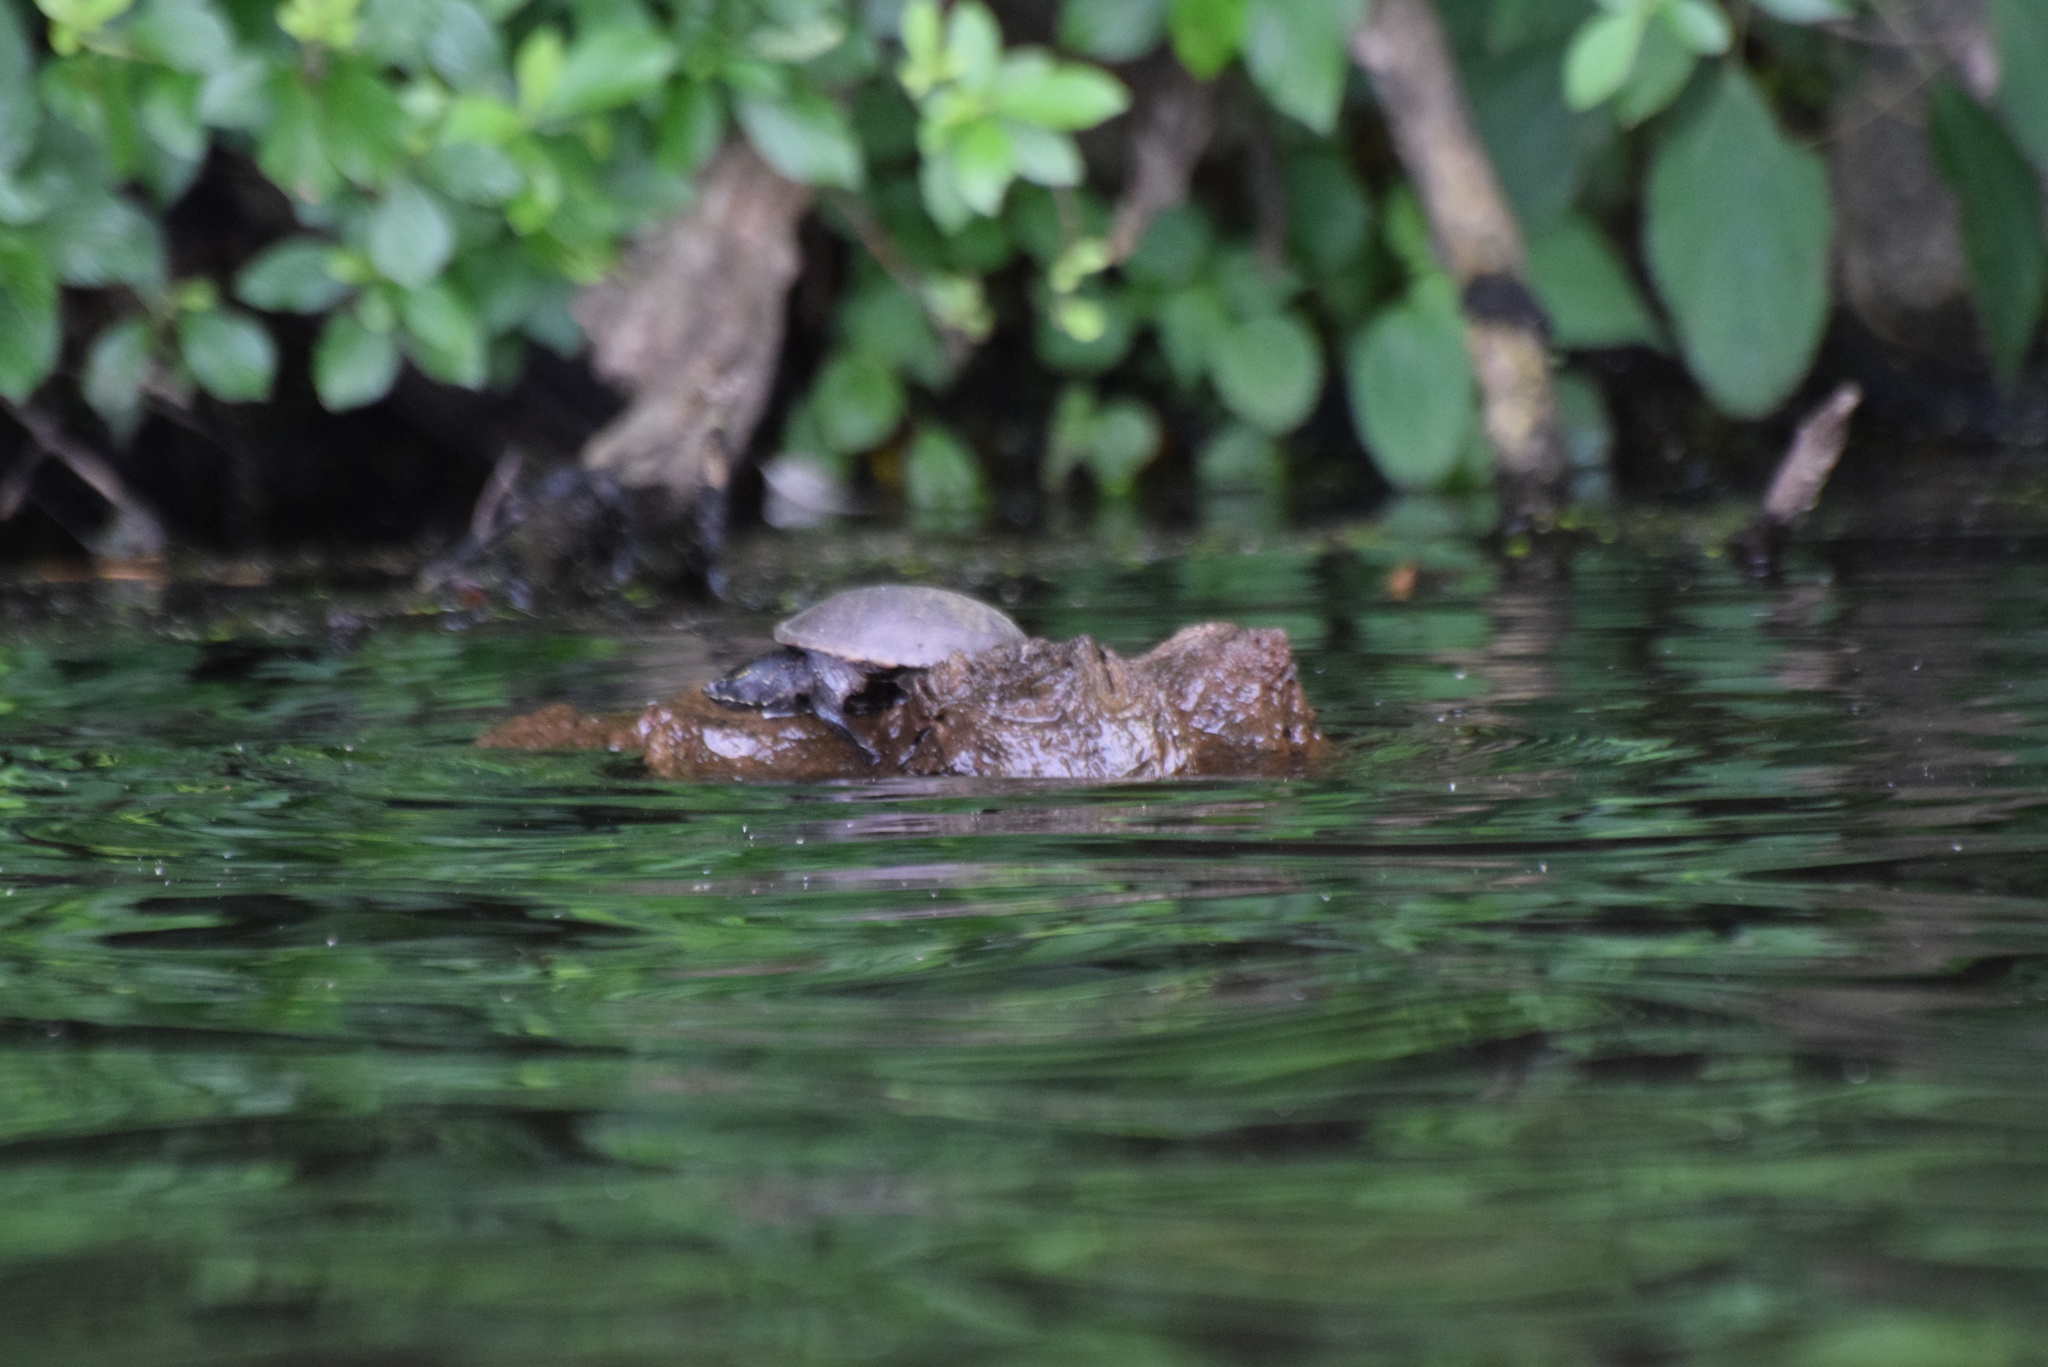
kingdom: Animalia
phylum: Chordata
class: Testudines
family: Kinosternidae
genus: Sternotherus
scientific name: Sternotherus odoratus
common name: Common musk turtle
